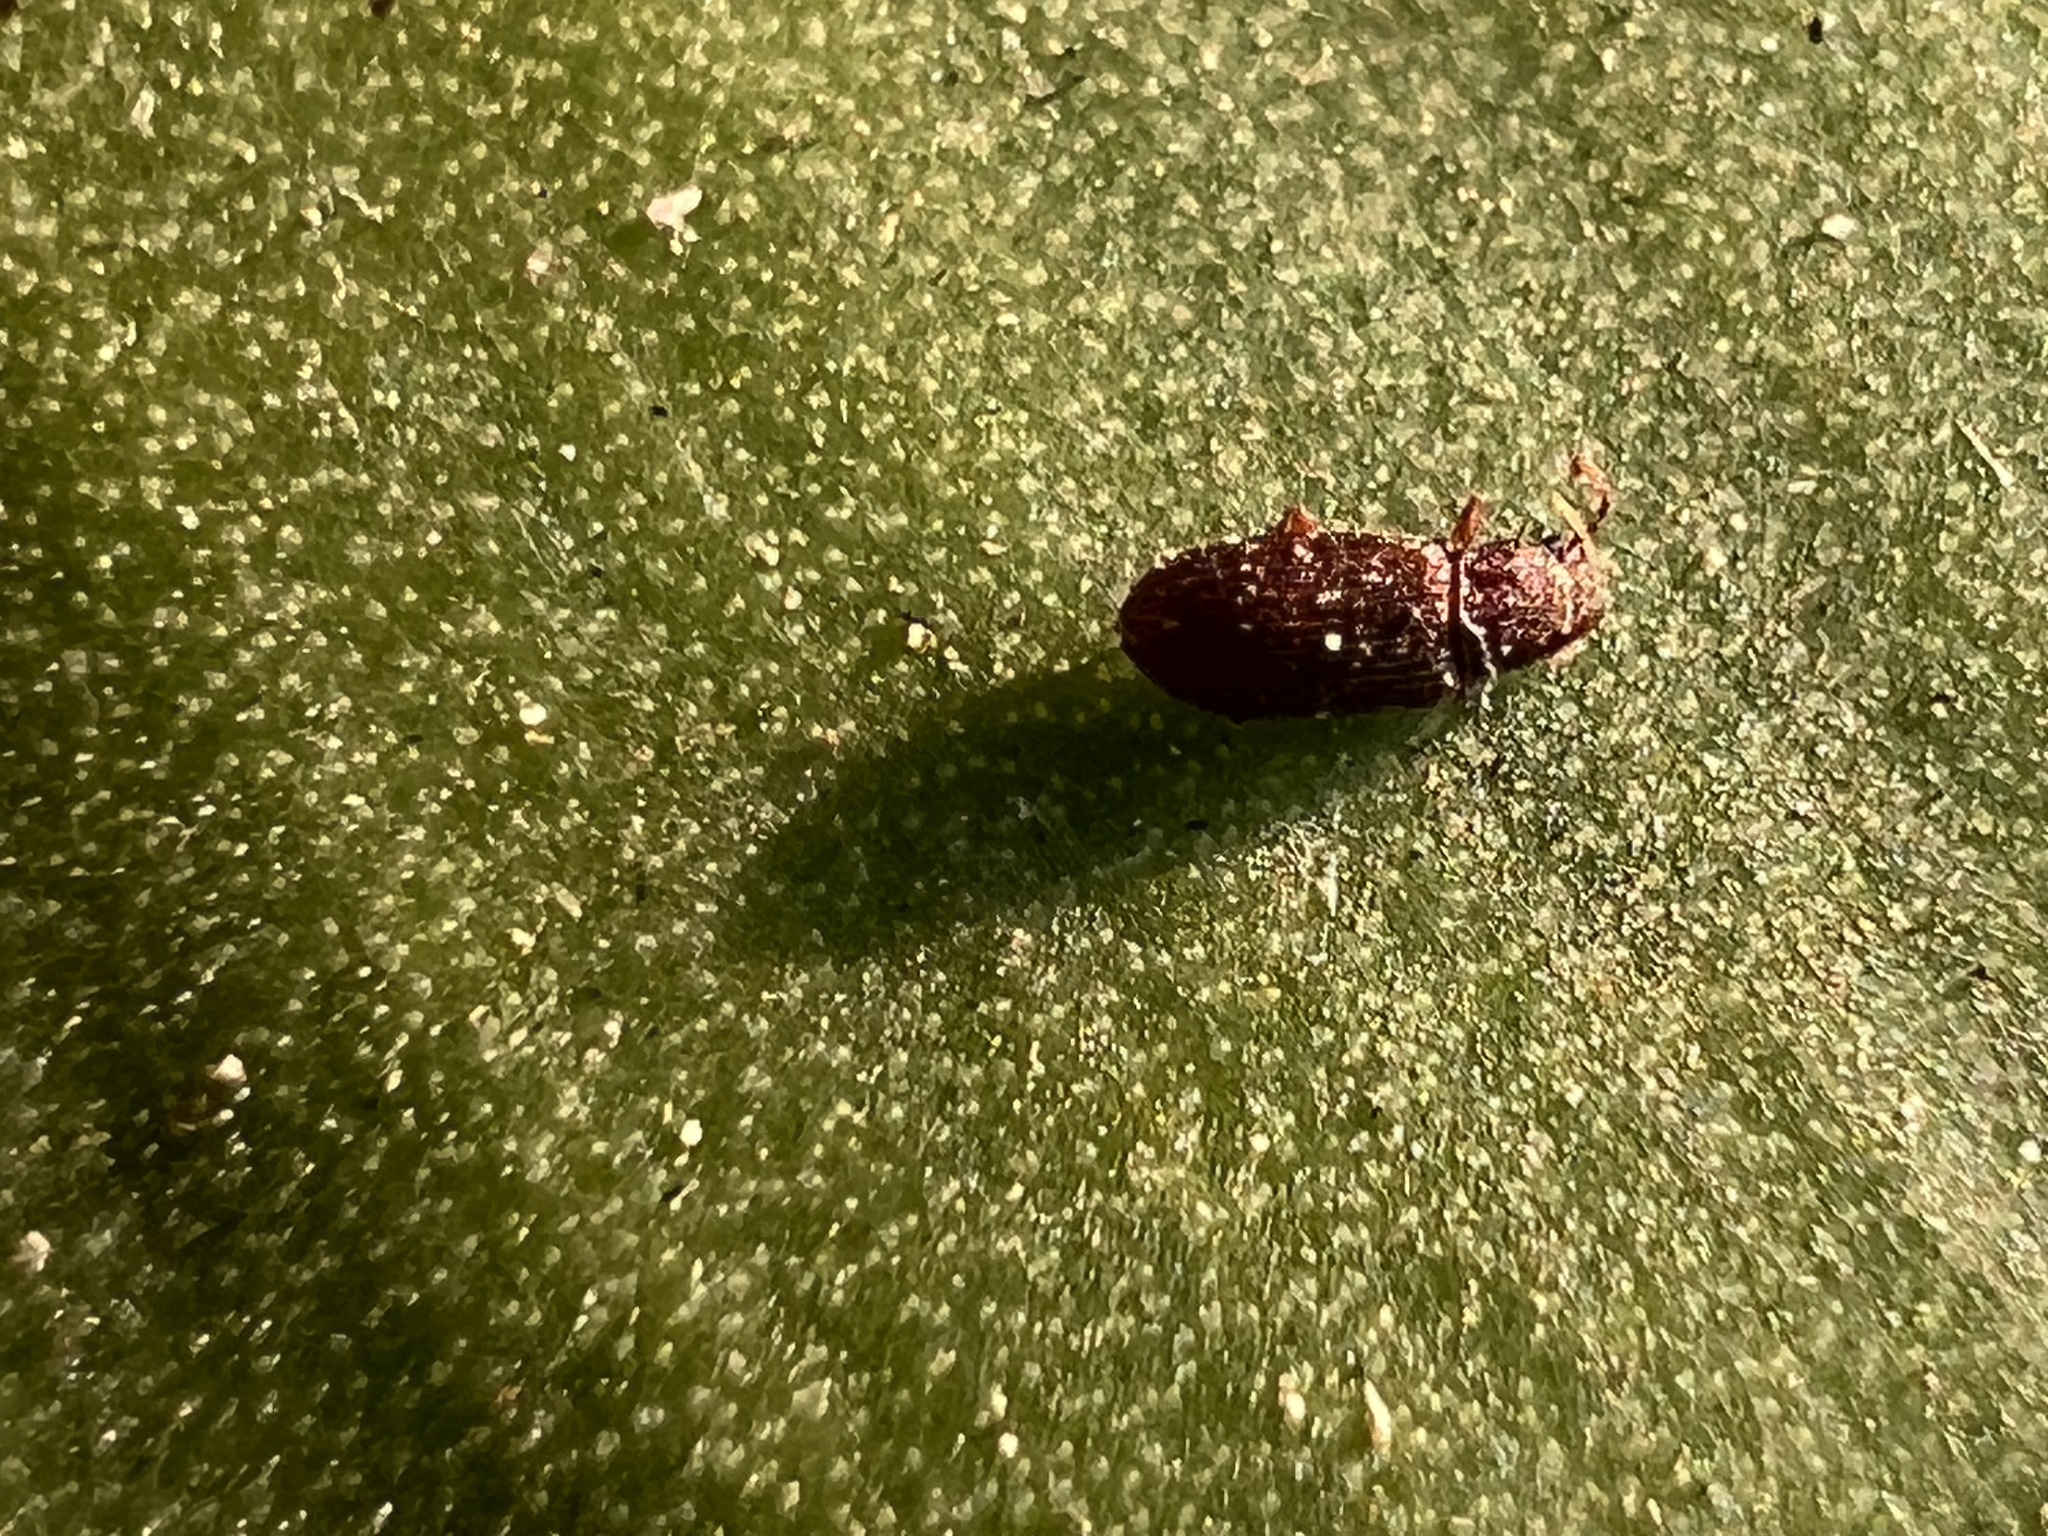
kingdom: Animalia
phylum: Arthropoda
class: Insecta
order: Coleoptera
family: Mycetophagidae
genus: Berginus
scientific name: Berginus pumilus
